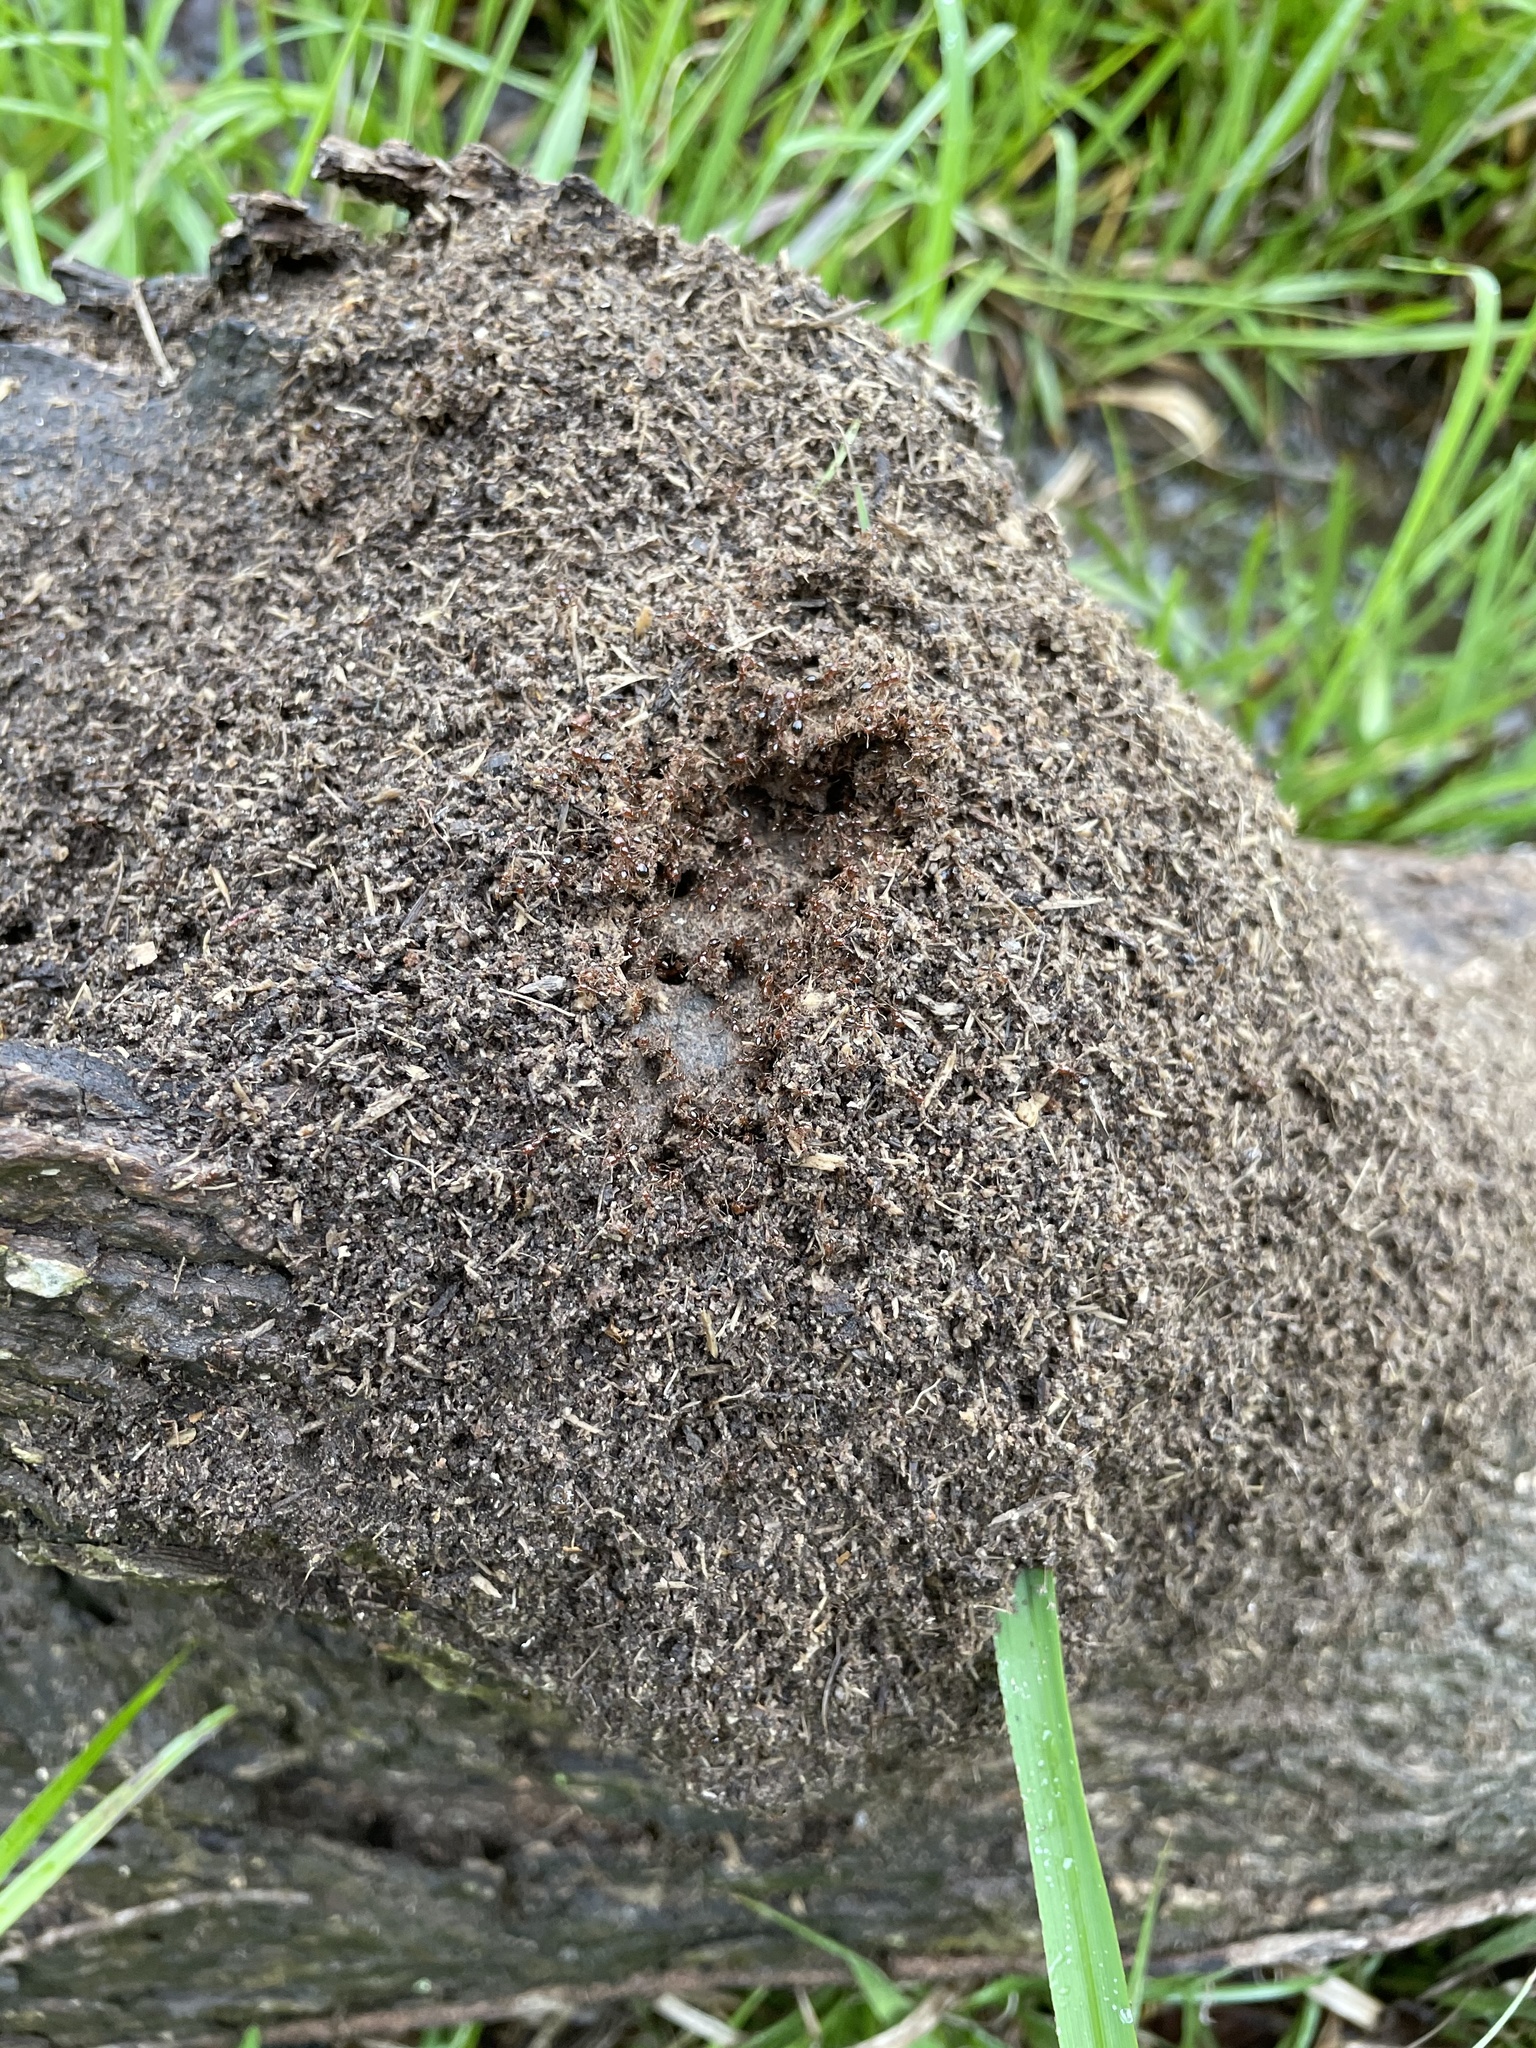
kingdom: Animalia
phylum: Arthropoda
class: Insecta
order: Hymenoptera
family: Formicidae
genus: Solenopsis
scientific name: Solenopsis invicta
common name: Red imported fire ant
